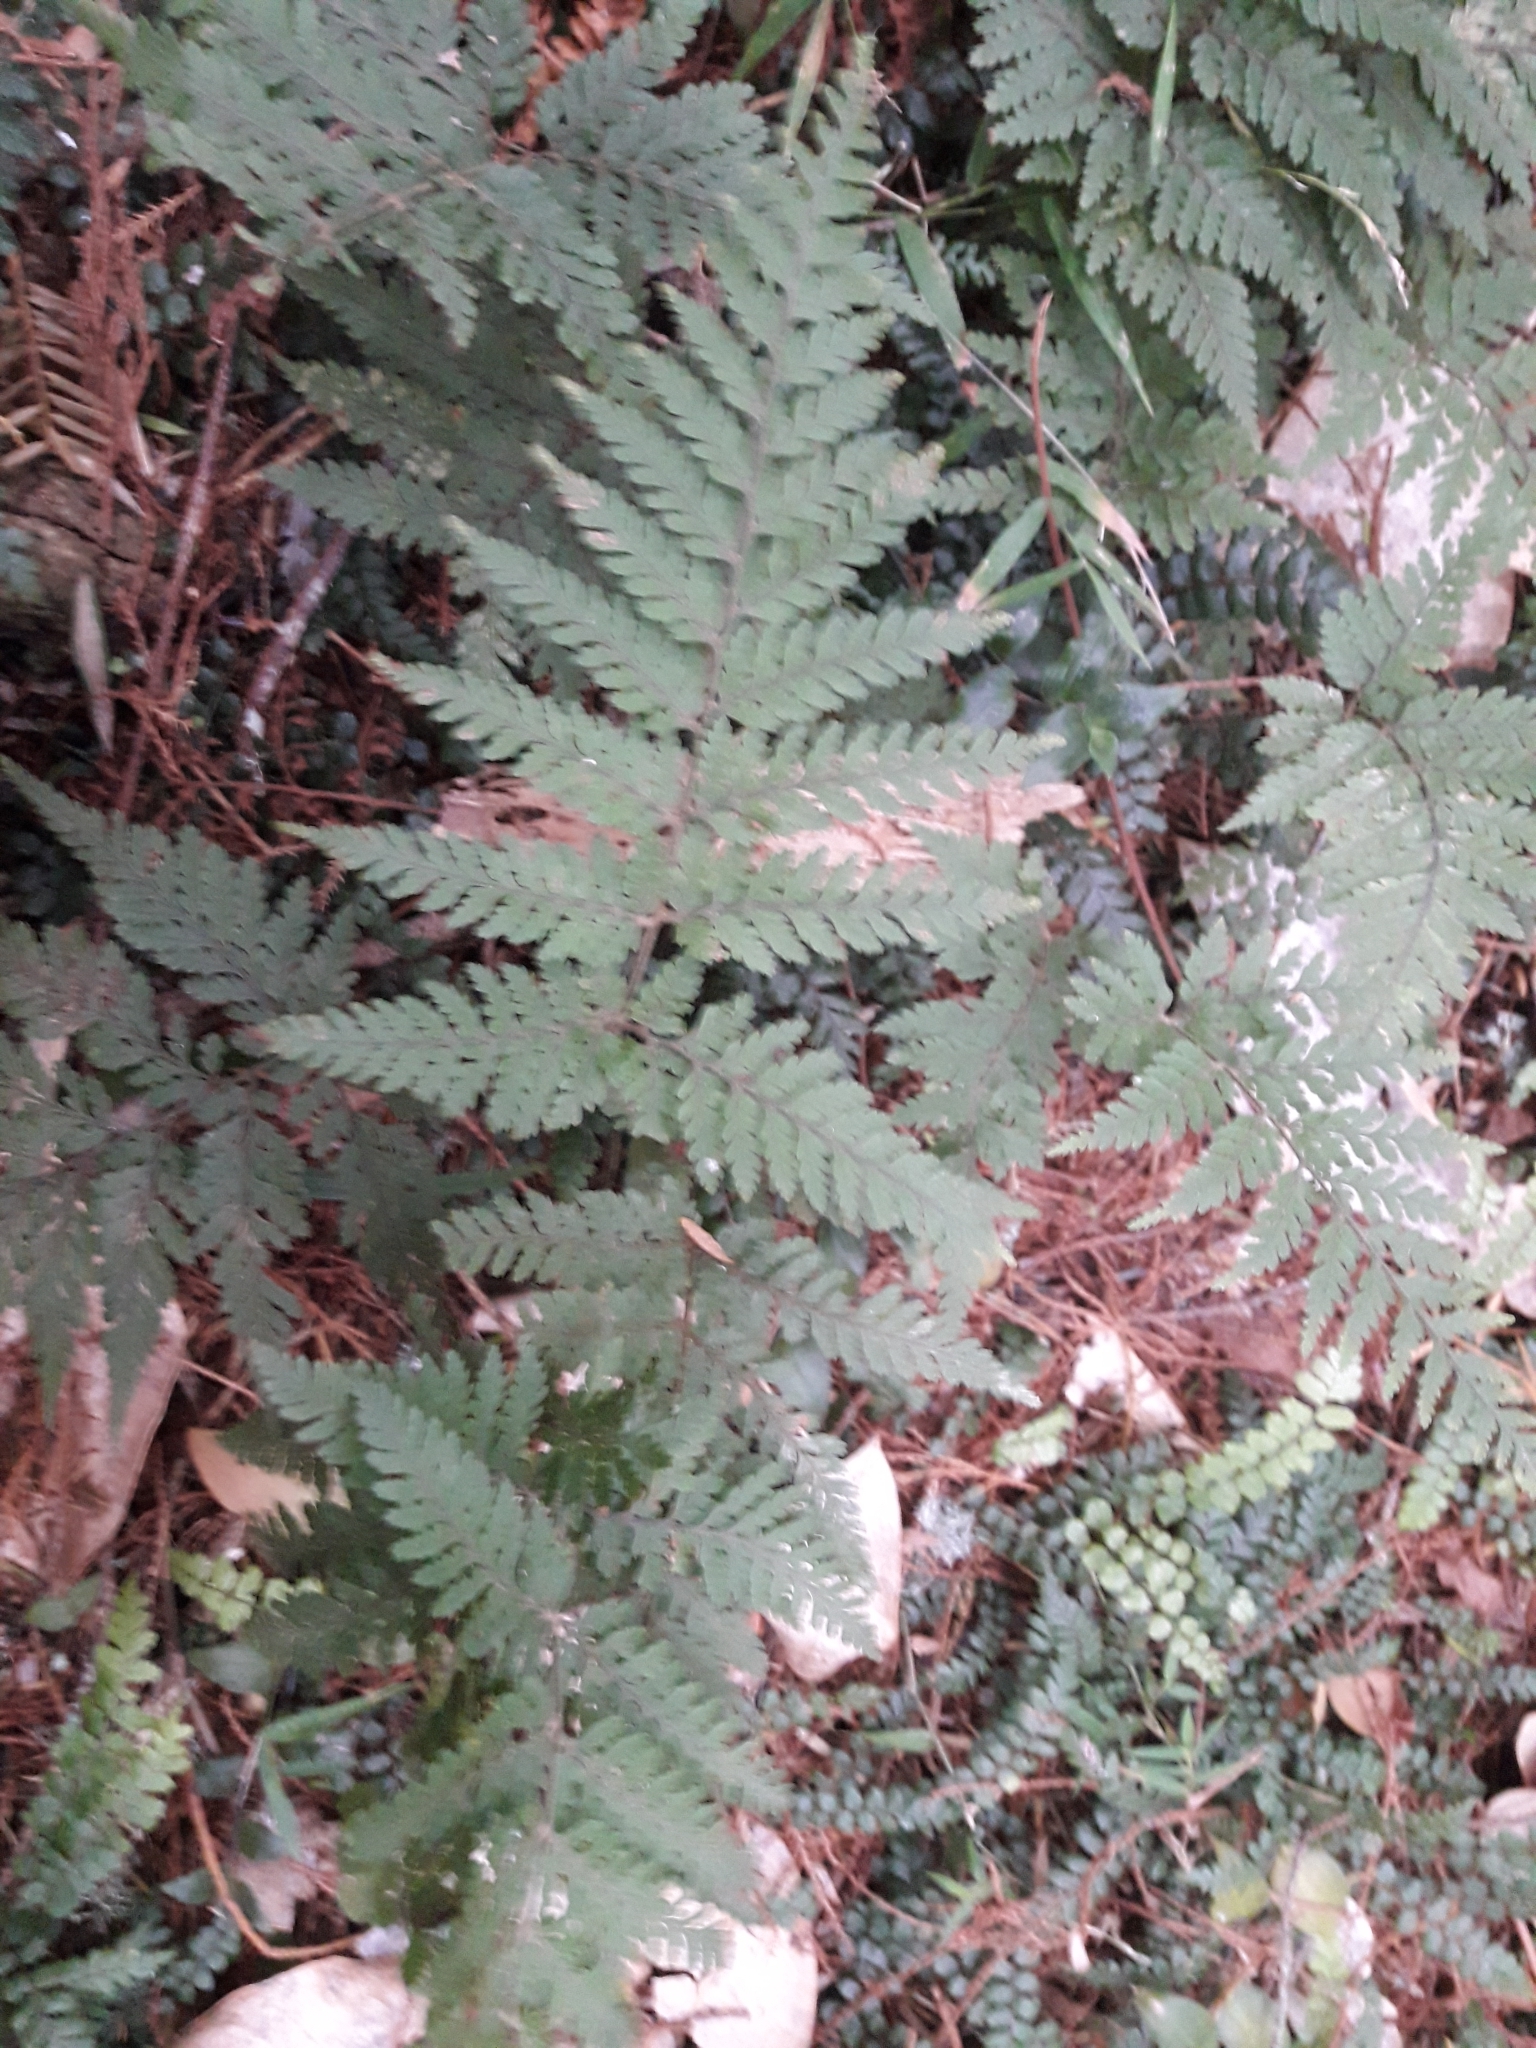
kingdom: Plantae
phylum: Tracheophyta
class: Polypodiopsida
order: Polypodiales
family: Dryopteridaceae
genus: Parapolystichum
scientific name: Parapolystichum microsorum
